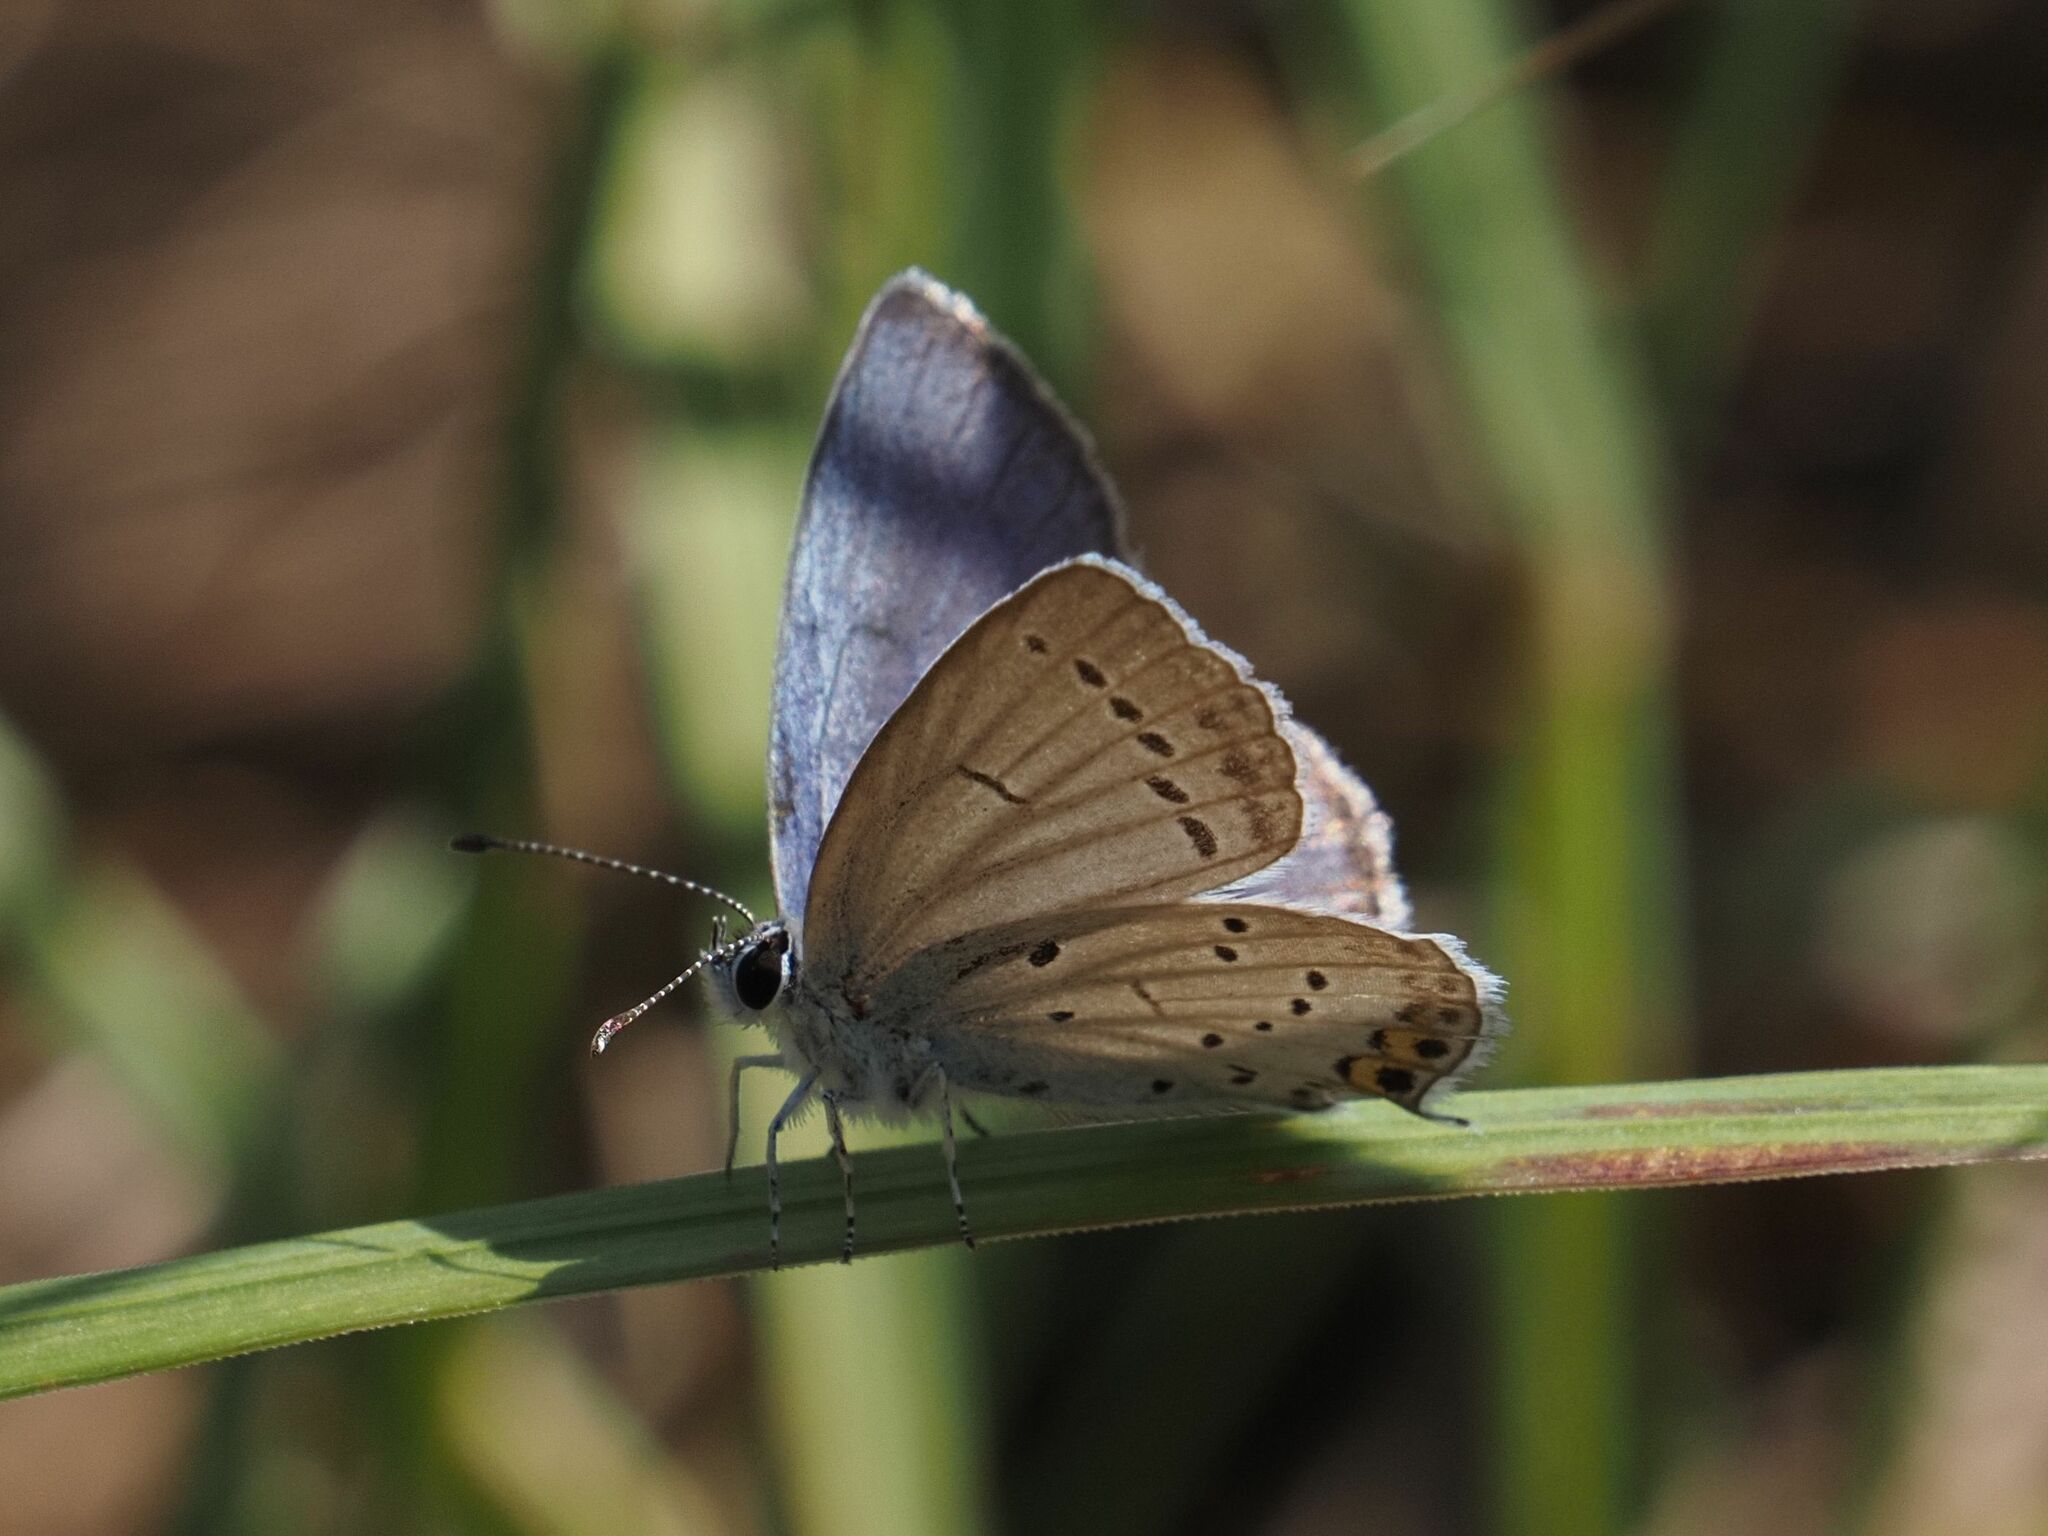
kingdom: Animalia
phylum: Arthropoda
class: Insecta
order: Lepidoptera
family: Lycaenidae
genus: Elkalyce
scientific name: Elkalyce argiades
